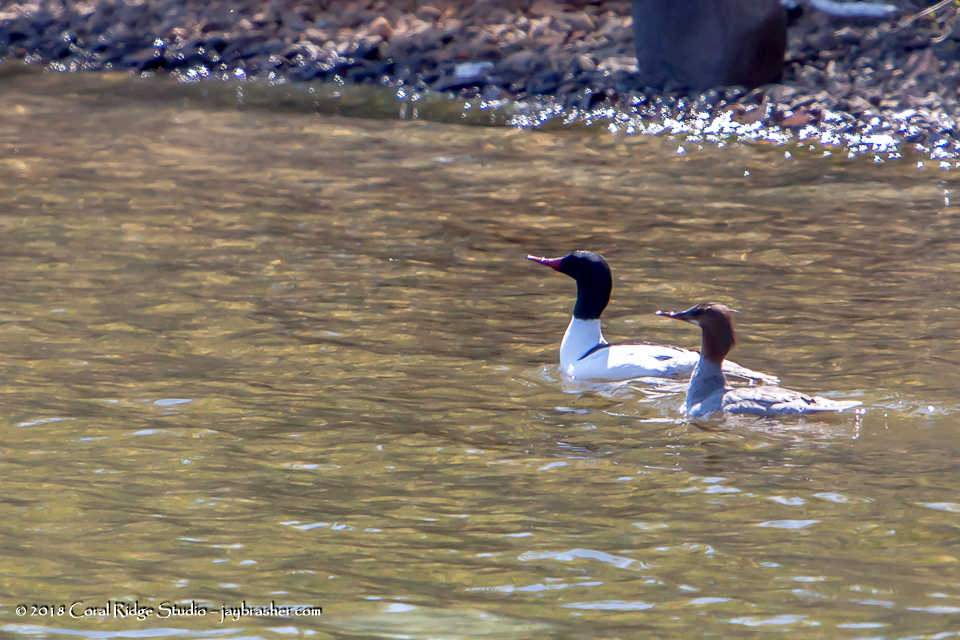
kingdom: Animalia
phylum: Chordata
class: Aves
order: Anseriformes
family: Anatidae
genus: Mergus
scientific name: Mergus merganser
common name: Common merganser
